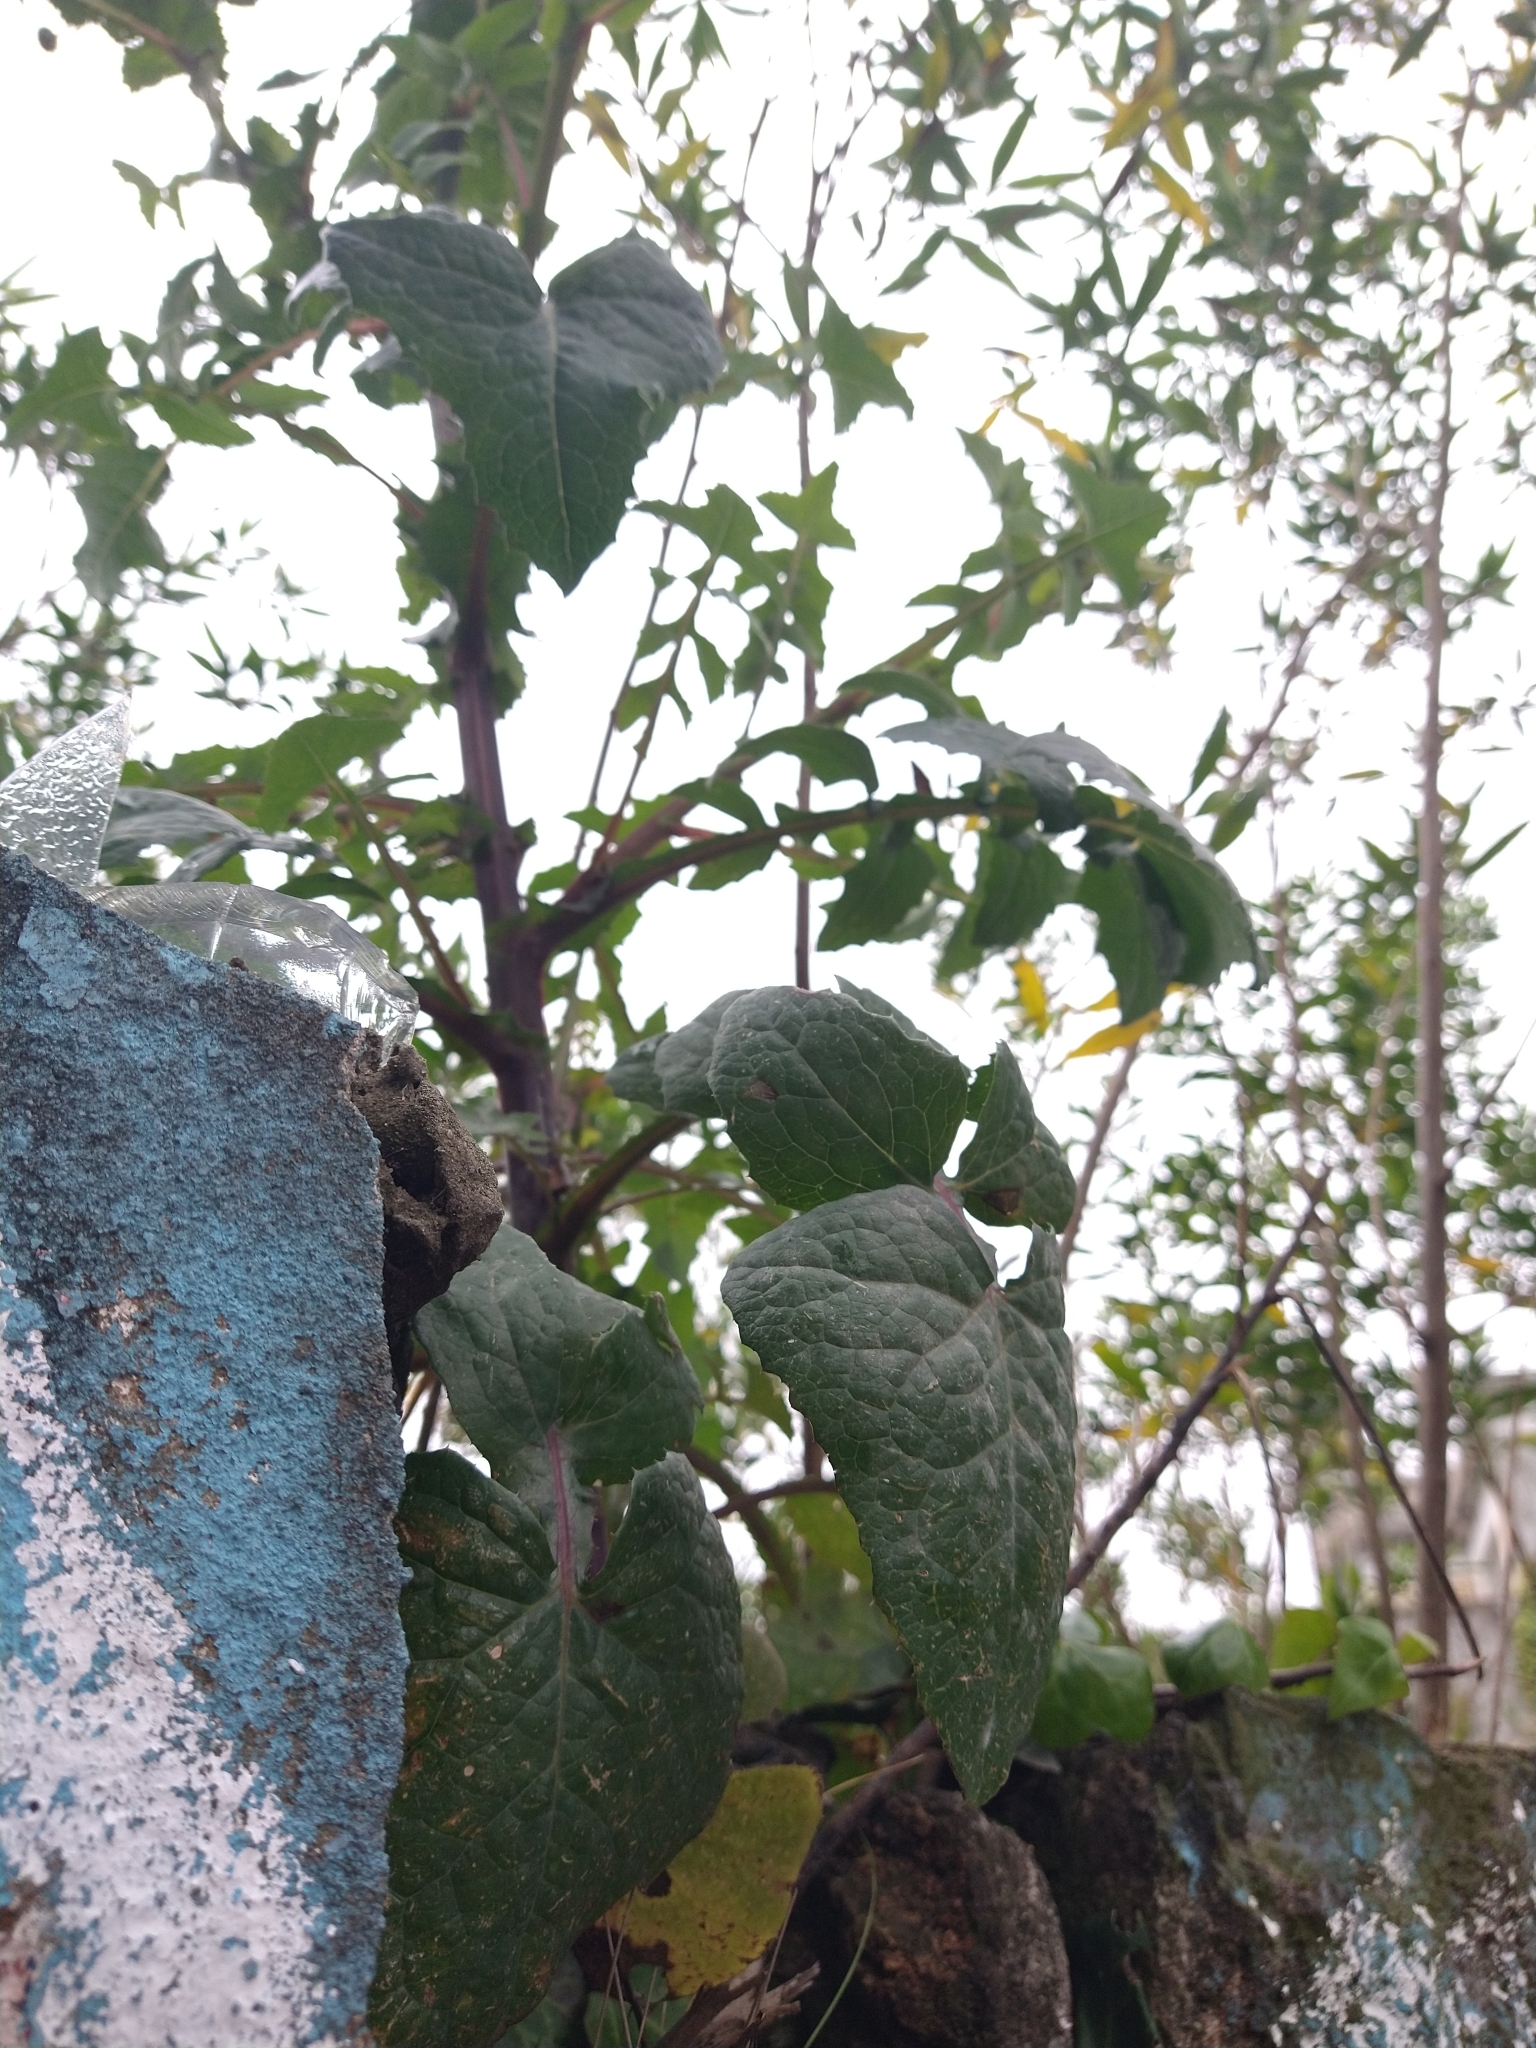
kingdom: Plantae
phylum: Tracheophyta
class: Magnoliopsida
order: Asterales
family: Asteraceae
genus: Sonchus
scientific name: Sonchus oleraceus
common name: Common sowthistle
